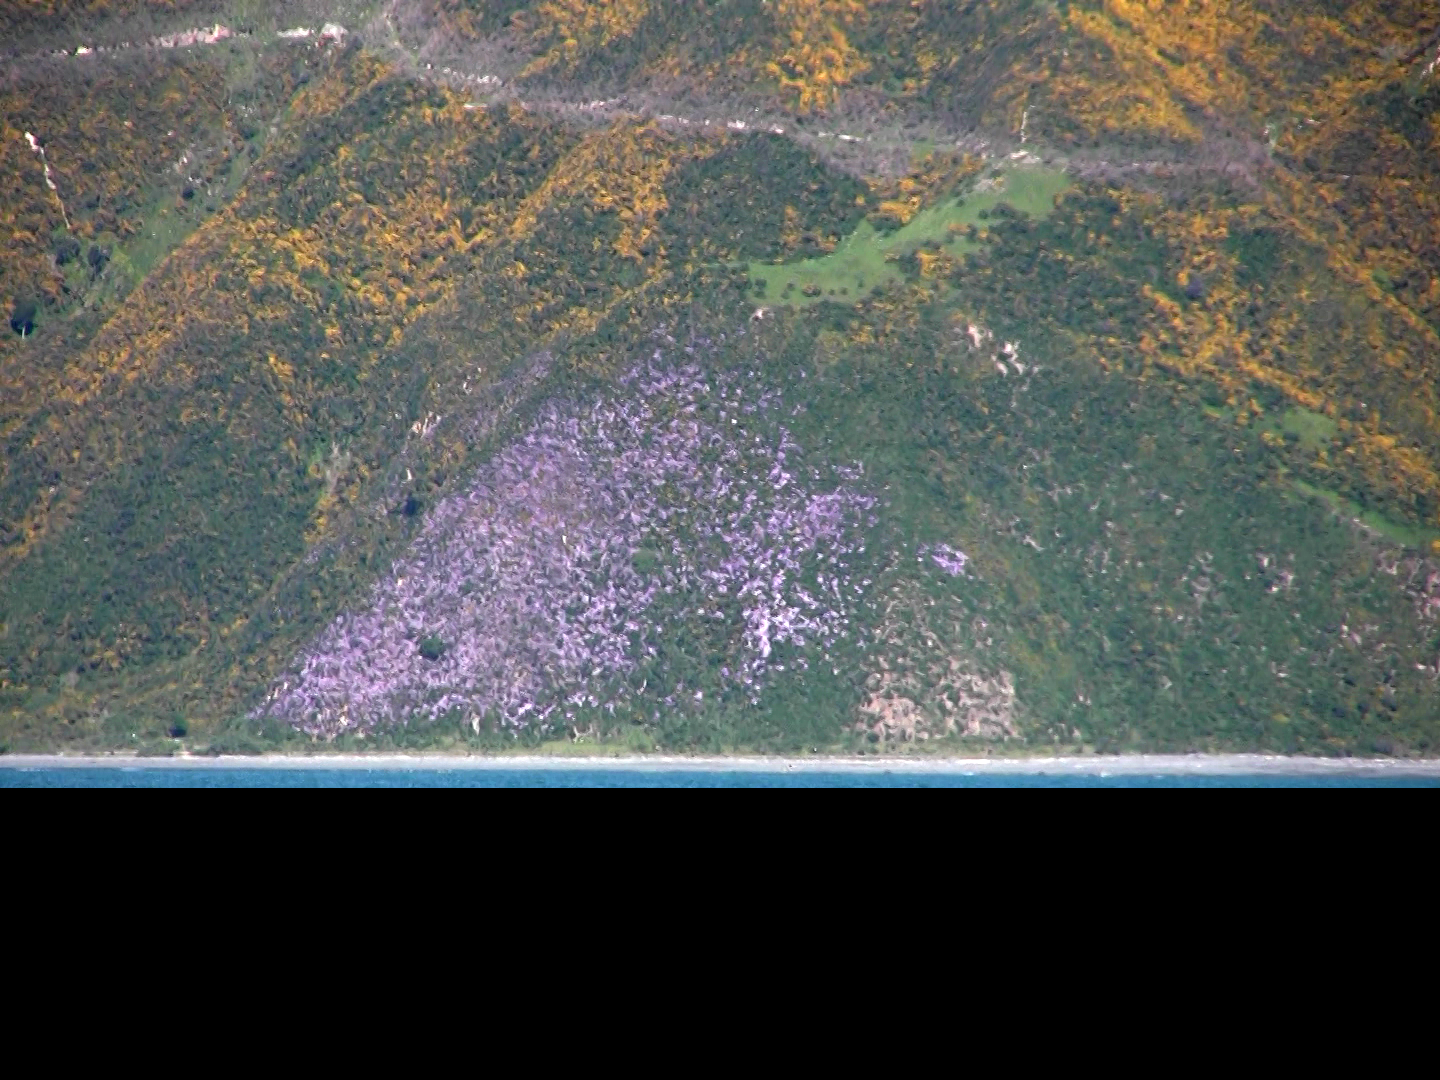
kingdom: Plantae
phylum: Tracheophyta
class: Magnoliopsida
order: Asterales
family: Asteraceae
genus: Senecio
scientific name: Senecio glastifolius
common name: Woad-leaved ragwort
